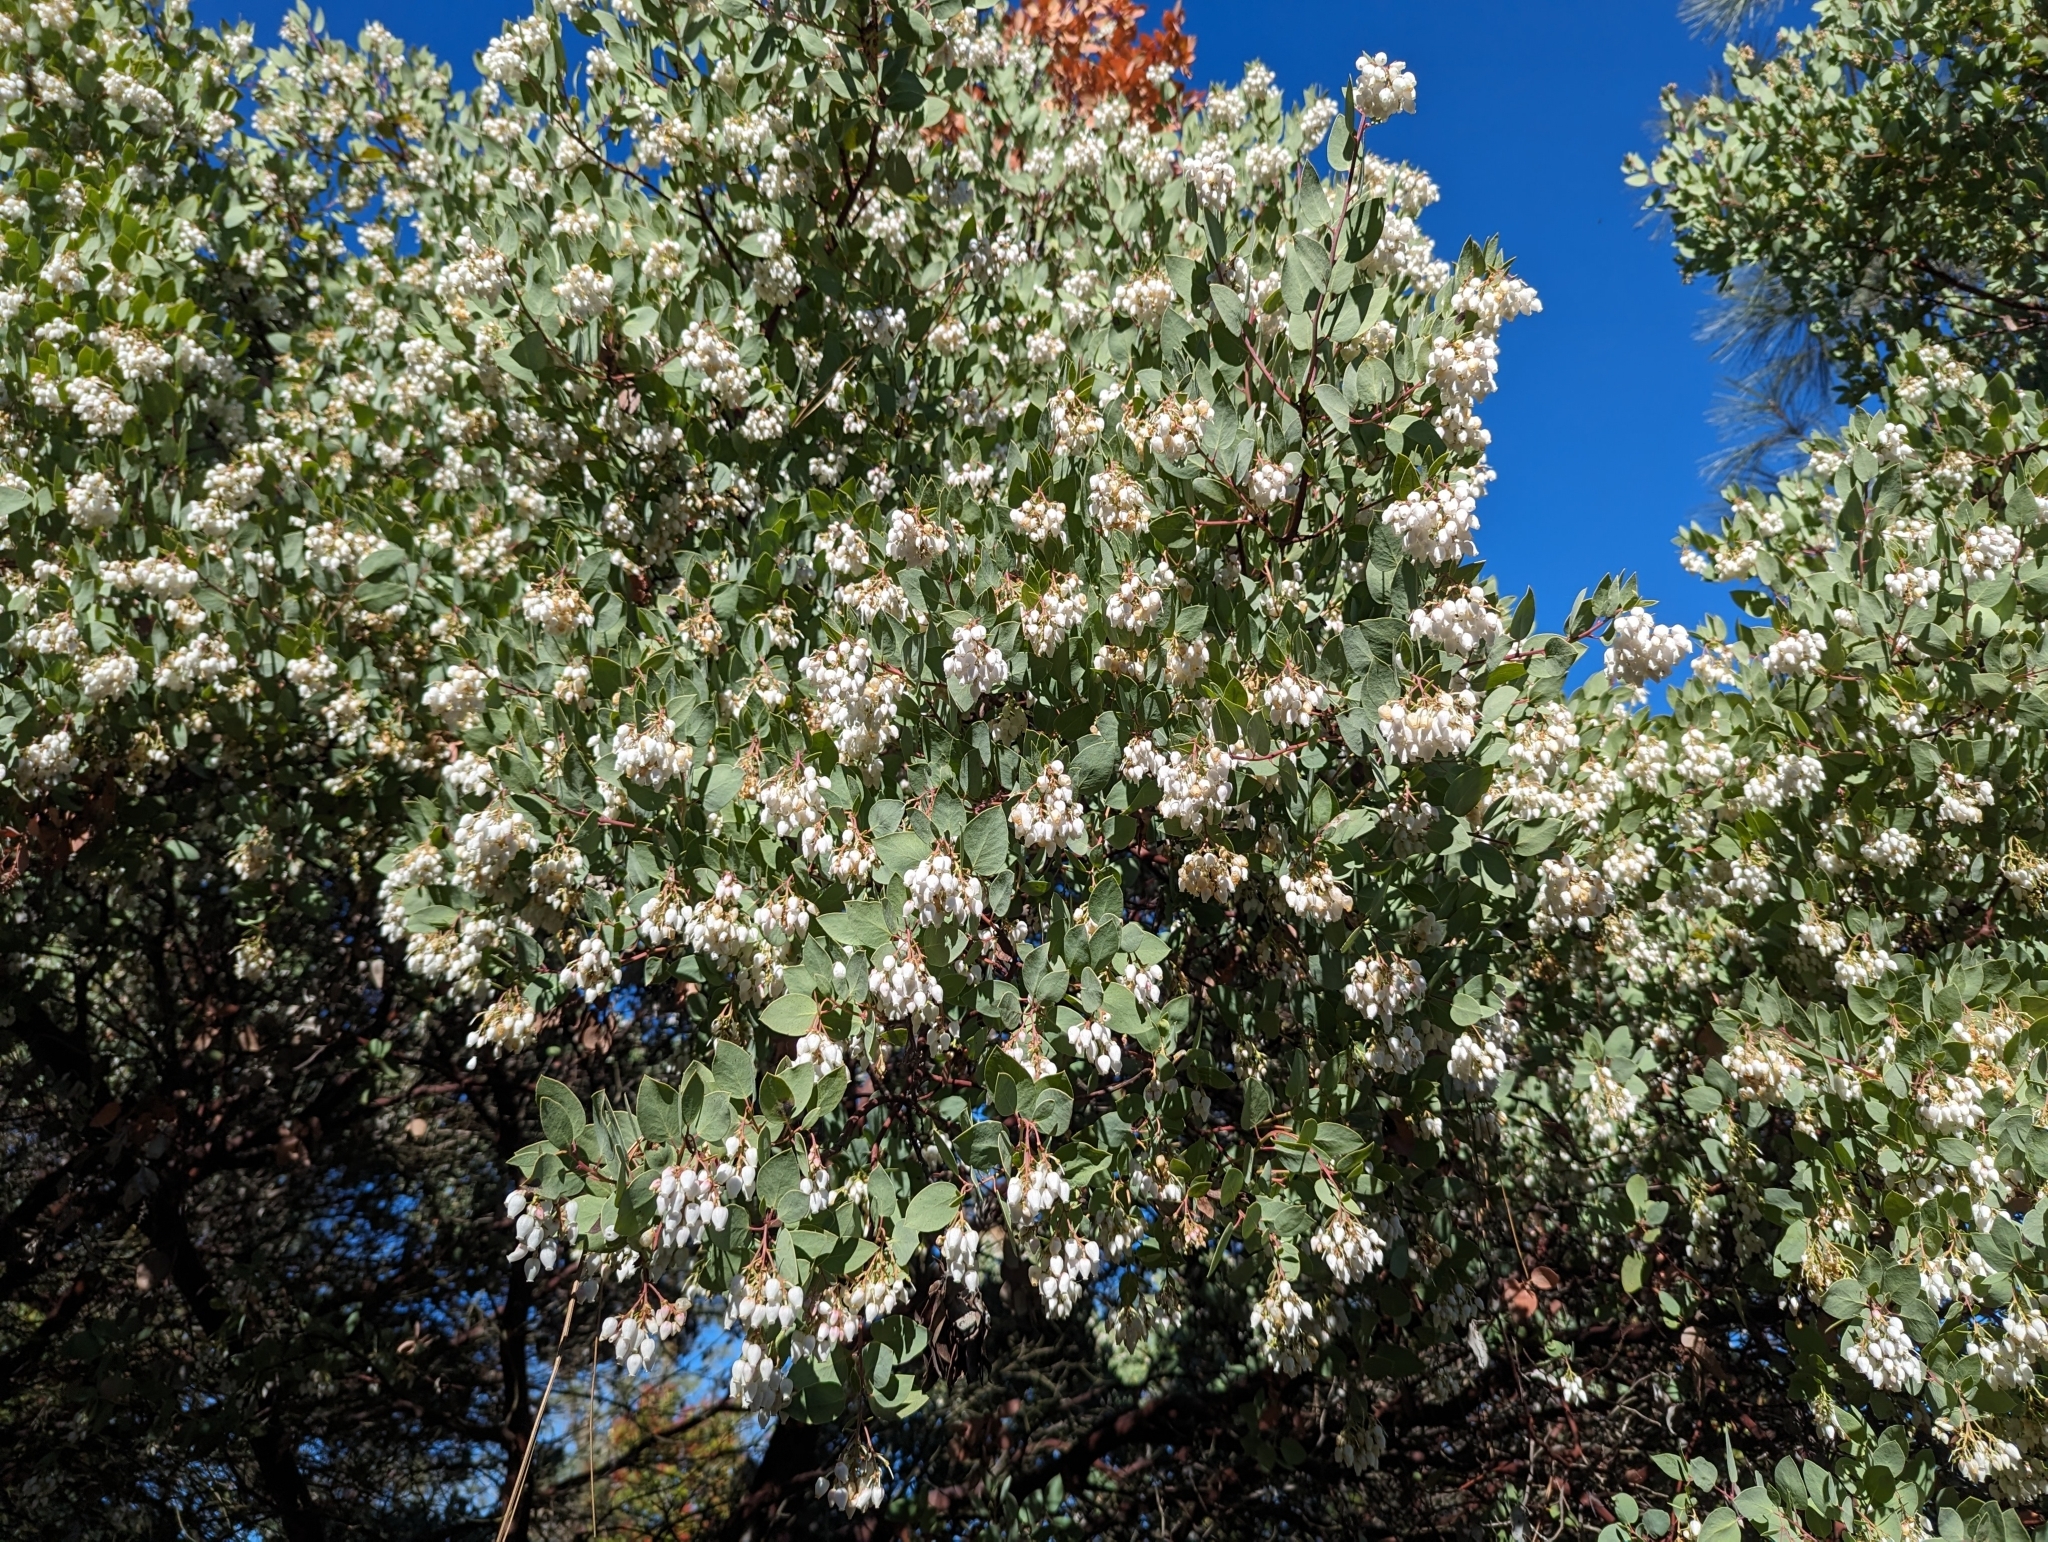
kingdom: Plantae
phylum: Tracheophyta
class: Magnoliopsida
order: Ericales
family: Ericaceae
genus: Arctostaphylos
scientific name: Arctostaphylos glauca
